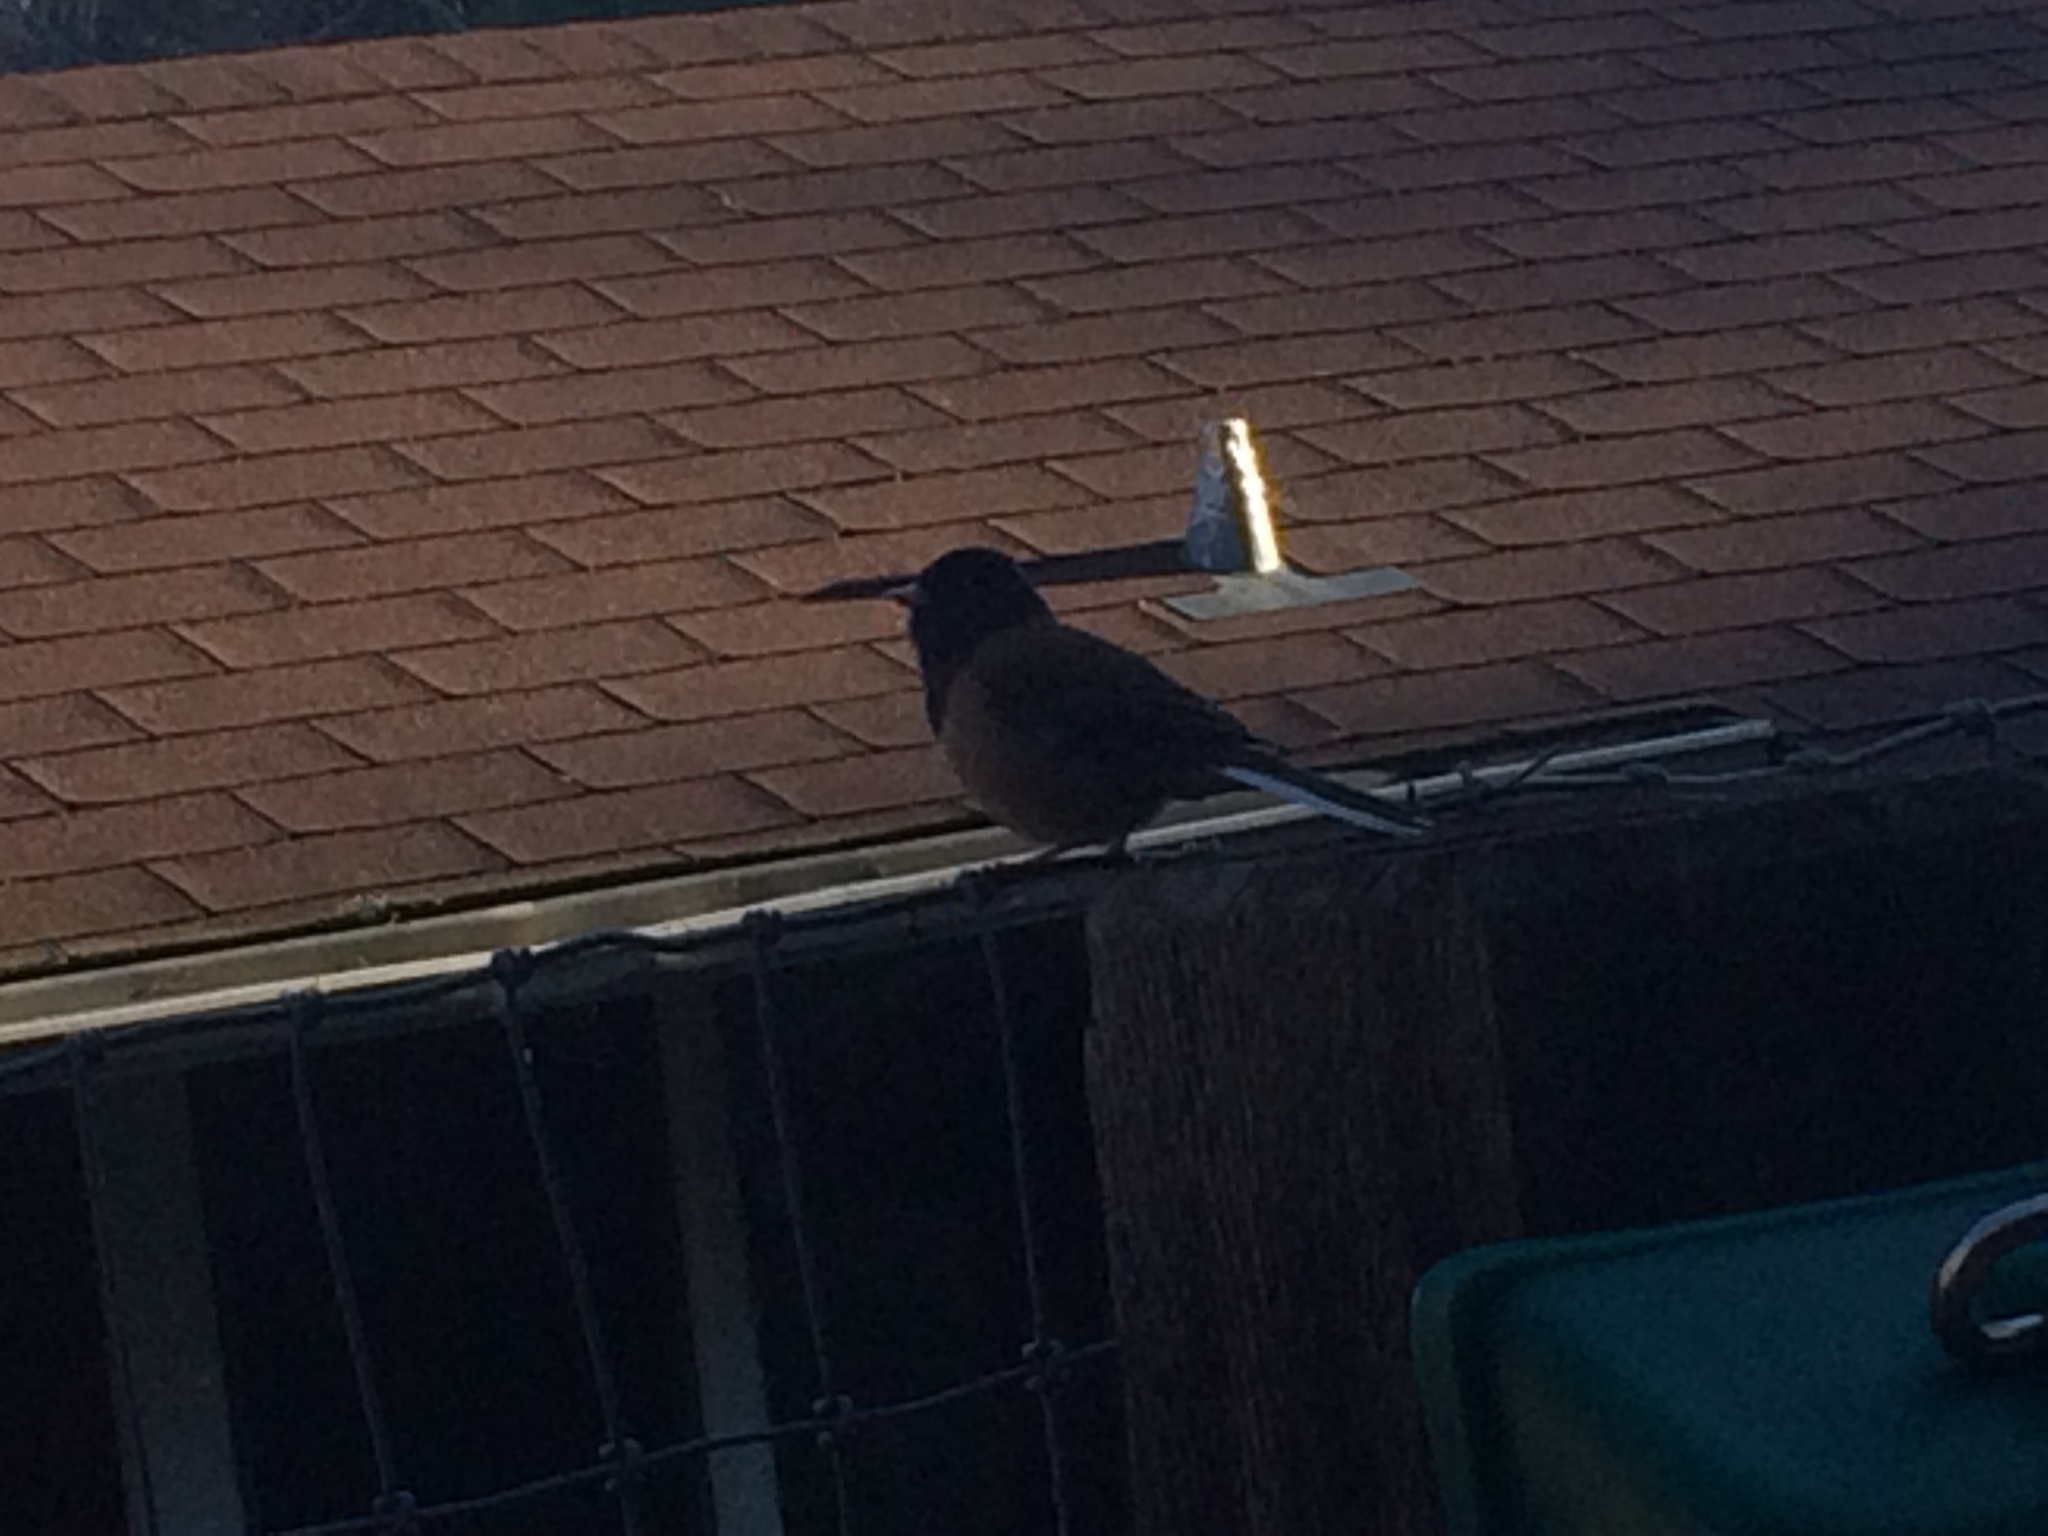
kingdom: Animalia
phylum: Chordata
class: Aves
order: Passeriformes
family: Passerellidae
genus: Junco
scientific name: Junco hyemalis
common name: Dark-eyed junco
